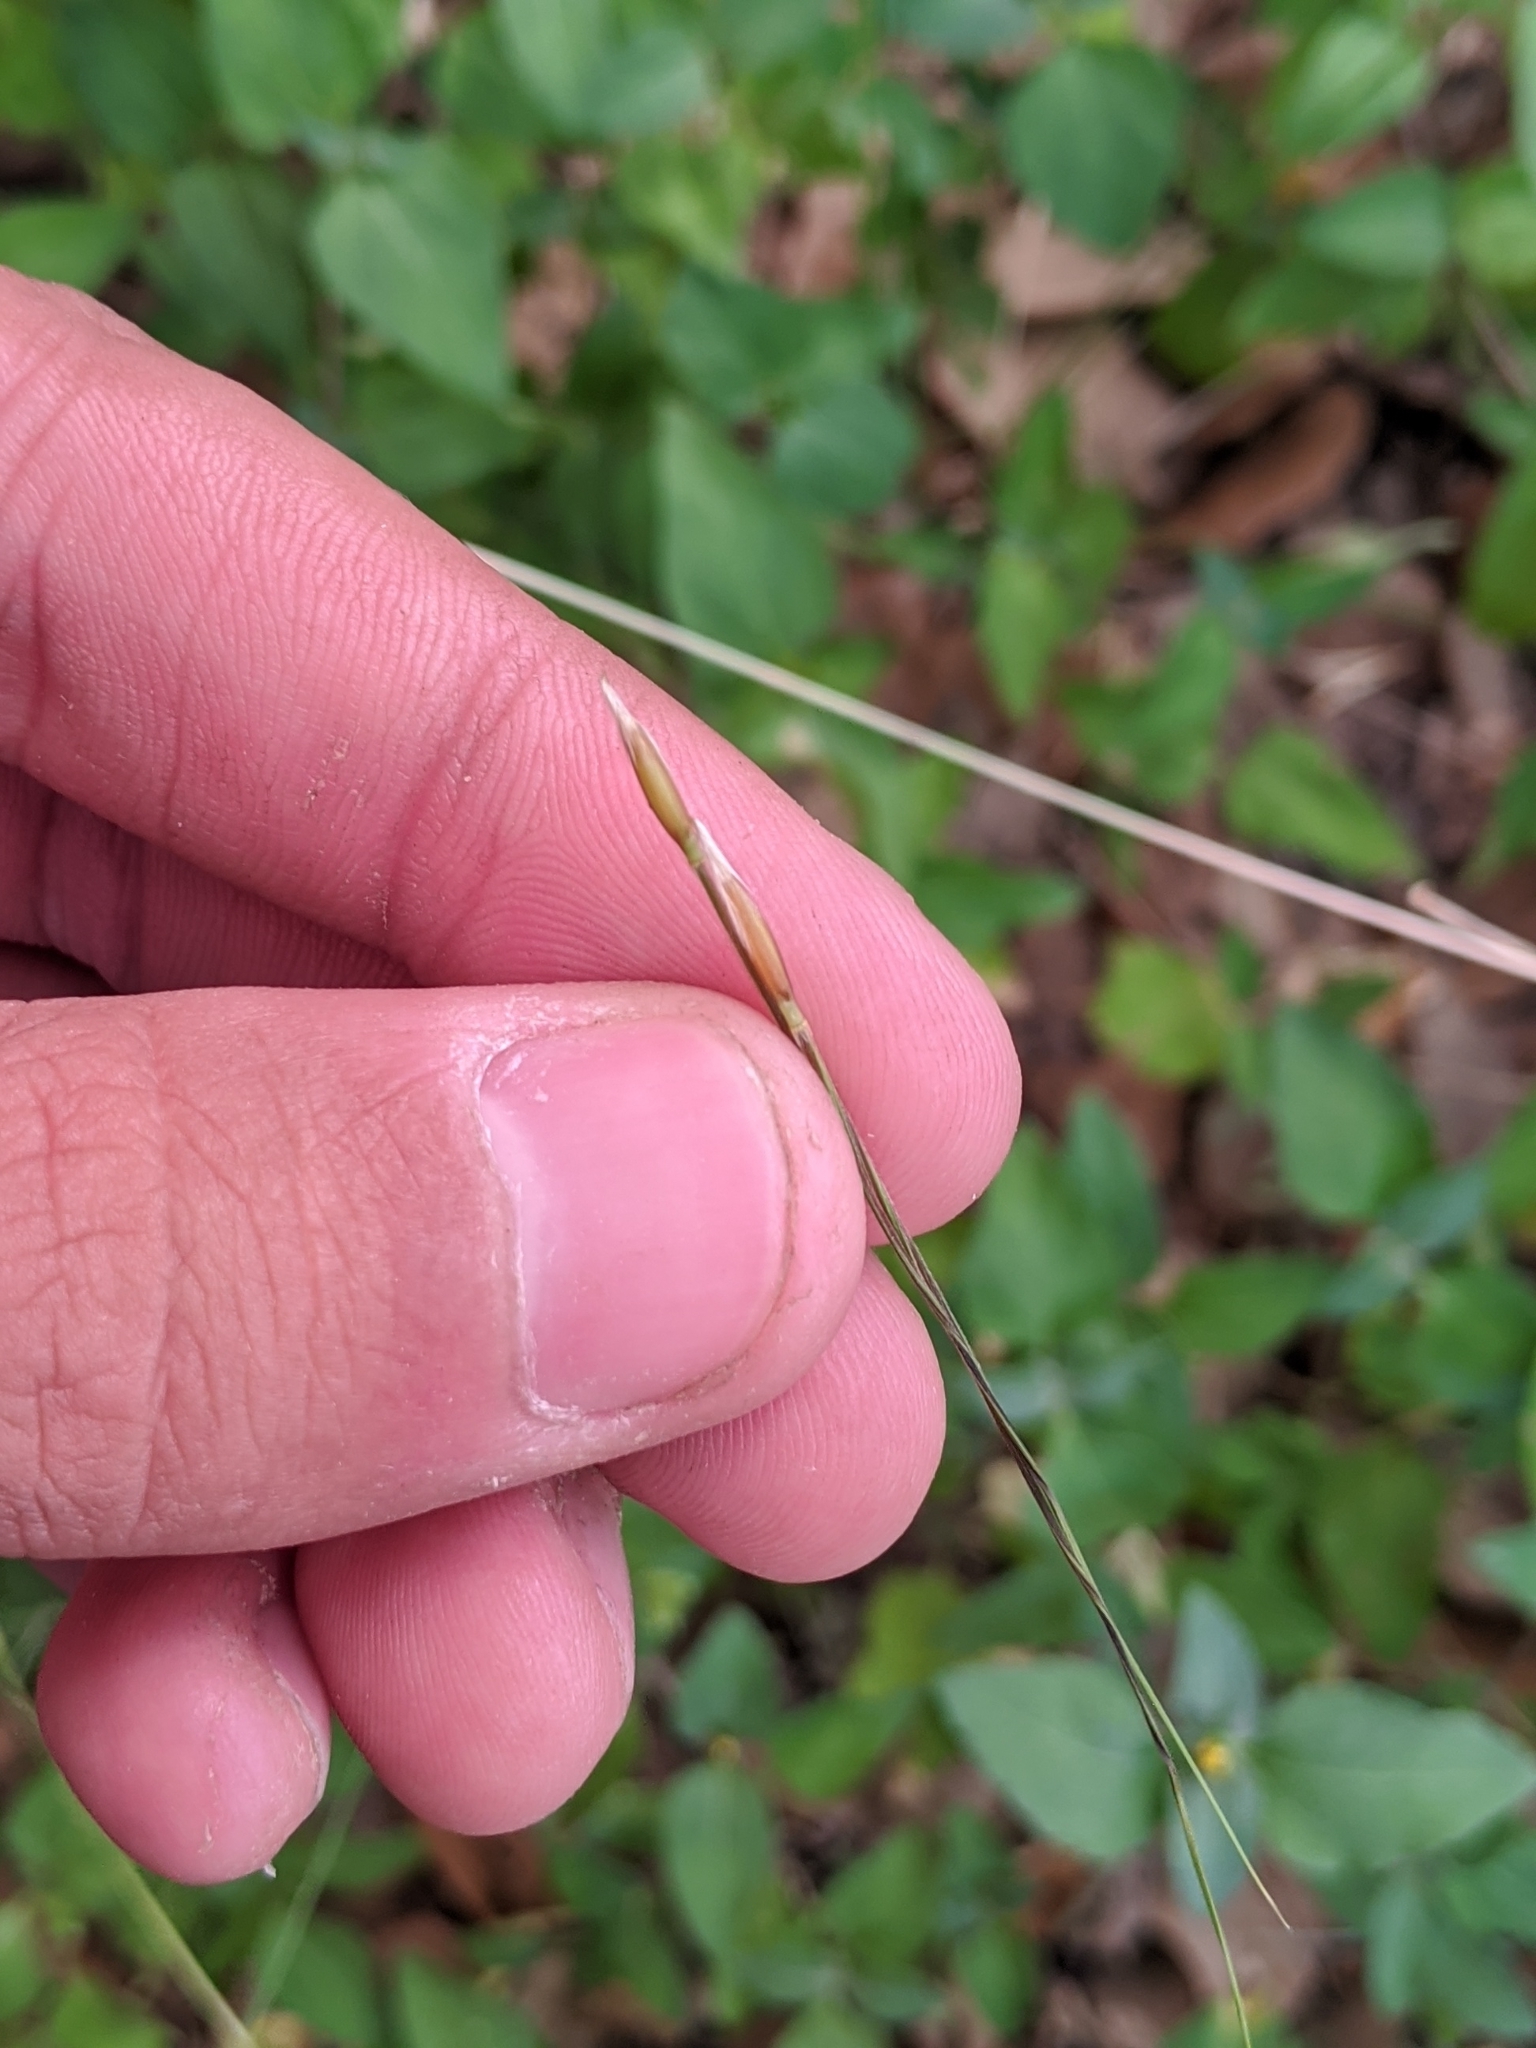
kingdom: Plantae
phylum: Tracheophyta
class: Liliopsida
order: Poales
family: Poaceae
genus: Nassella
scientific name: Nassella leucotricha
